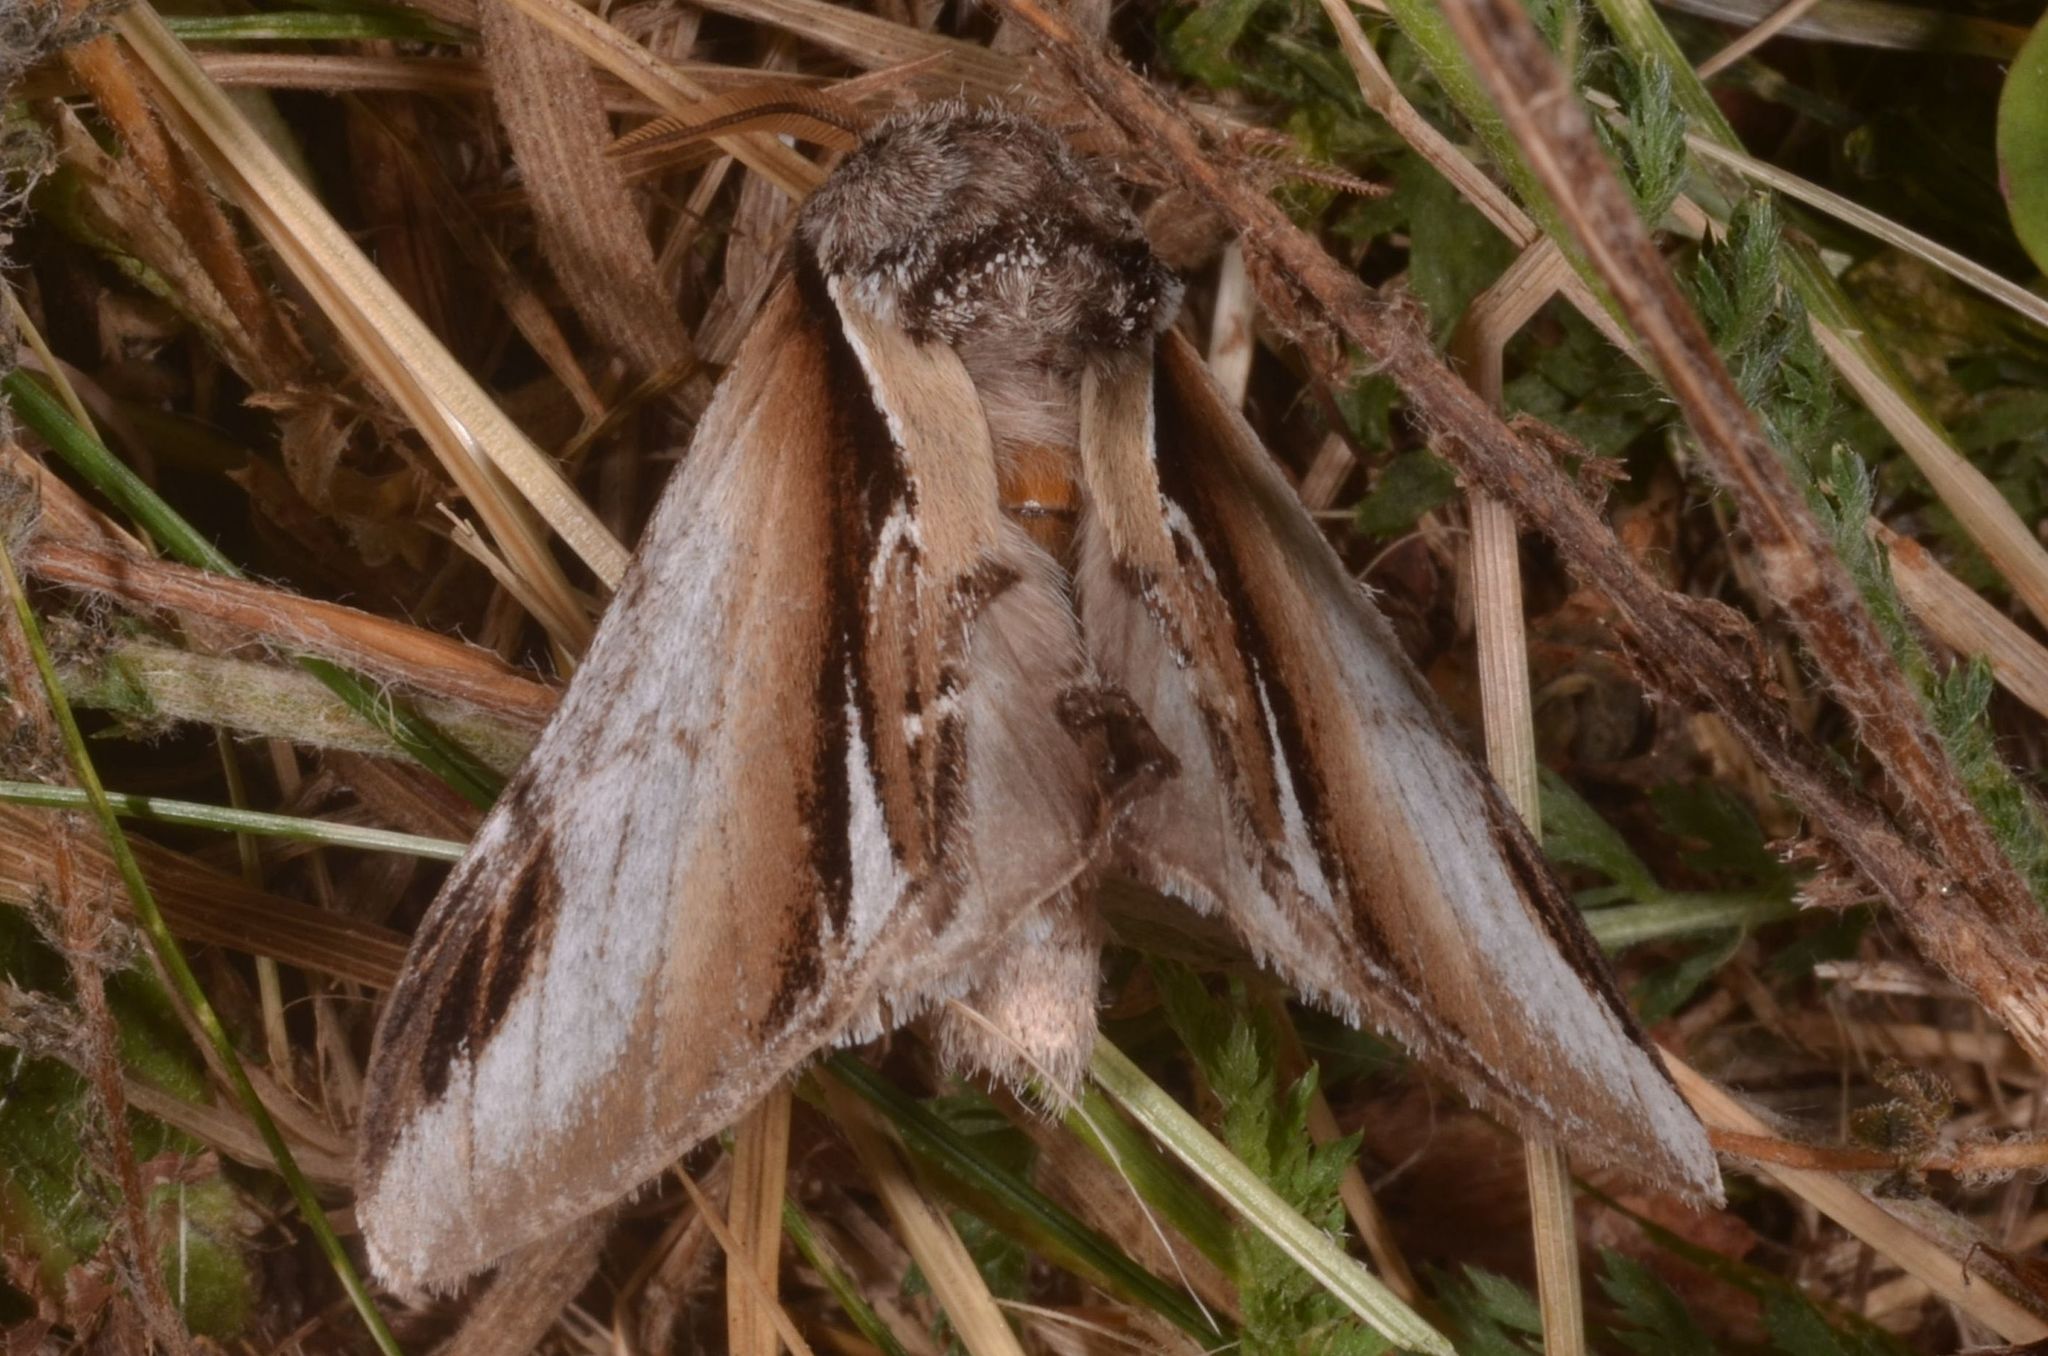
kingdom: Animalia
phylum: Arthropoda
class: Insecta
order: Lepidoptera
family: Notodontidae
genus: Pheosia
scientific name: Pheosia gnoma
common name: Lesser swallow prominent
